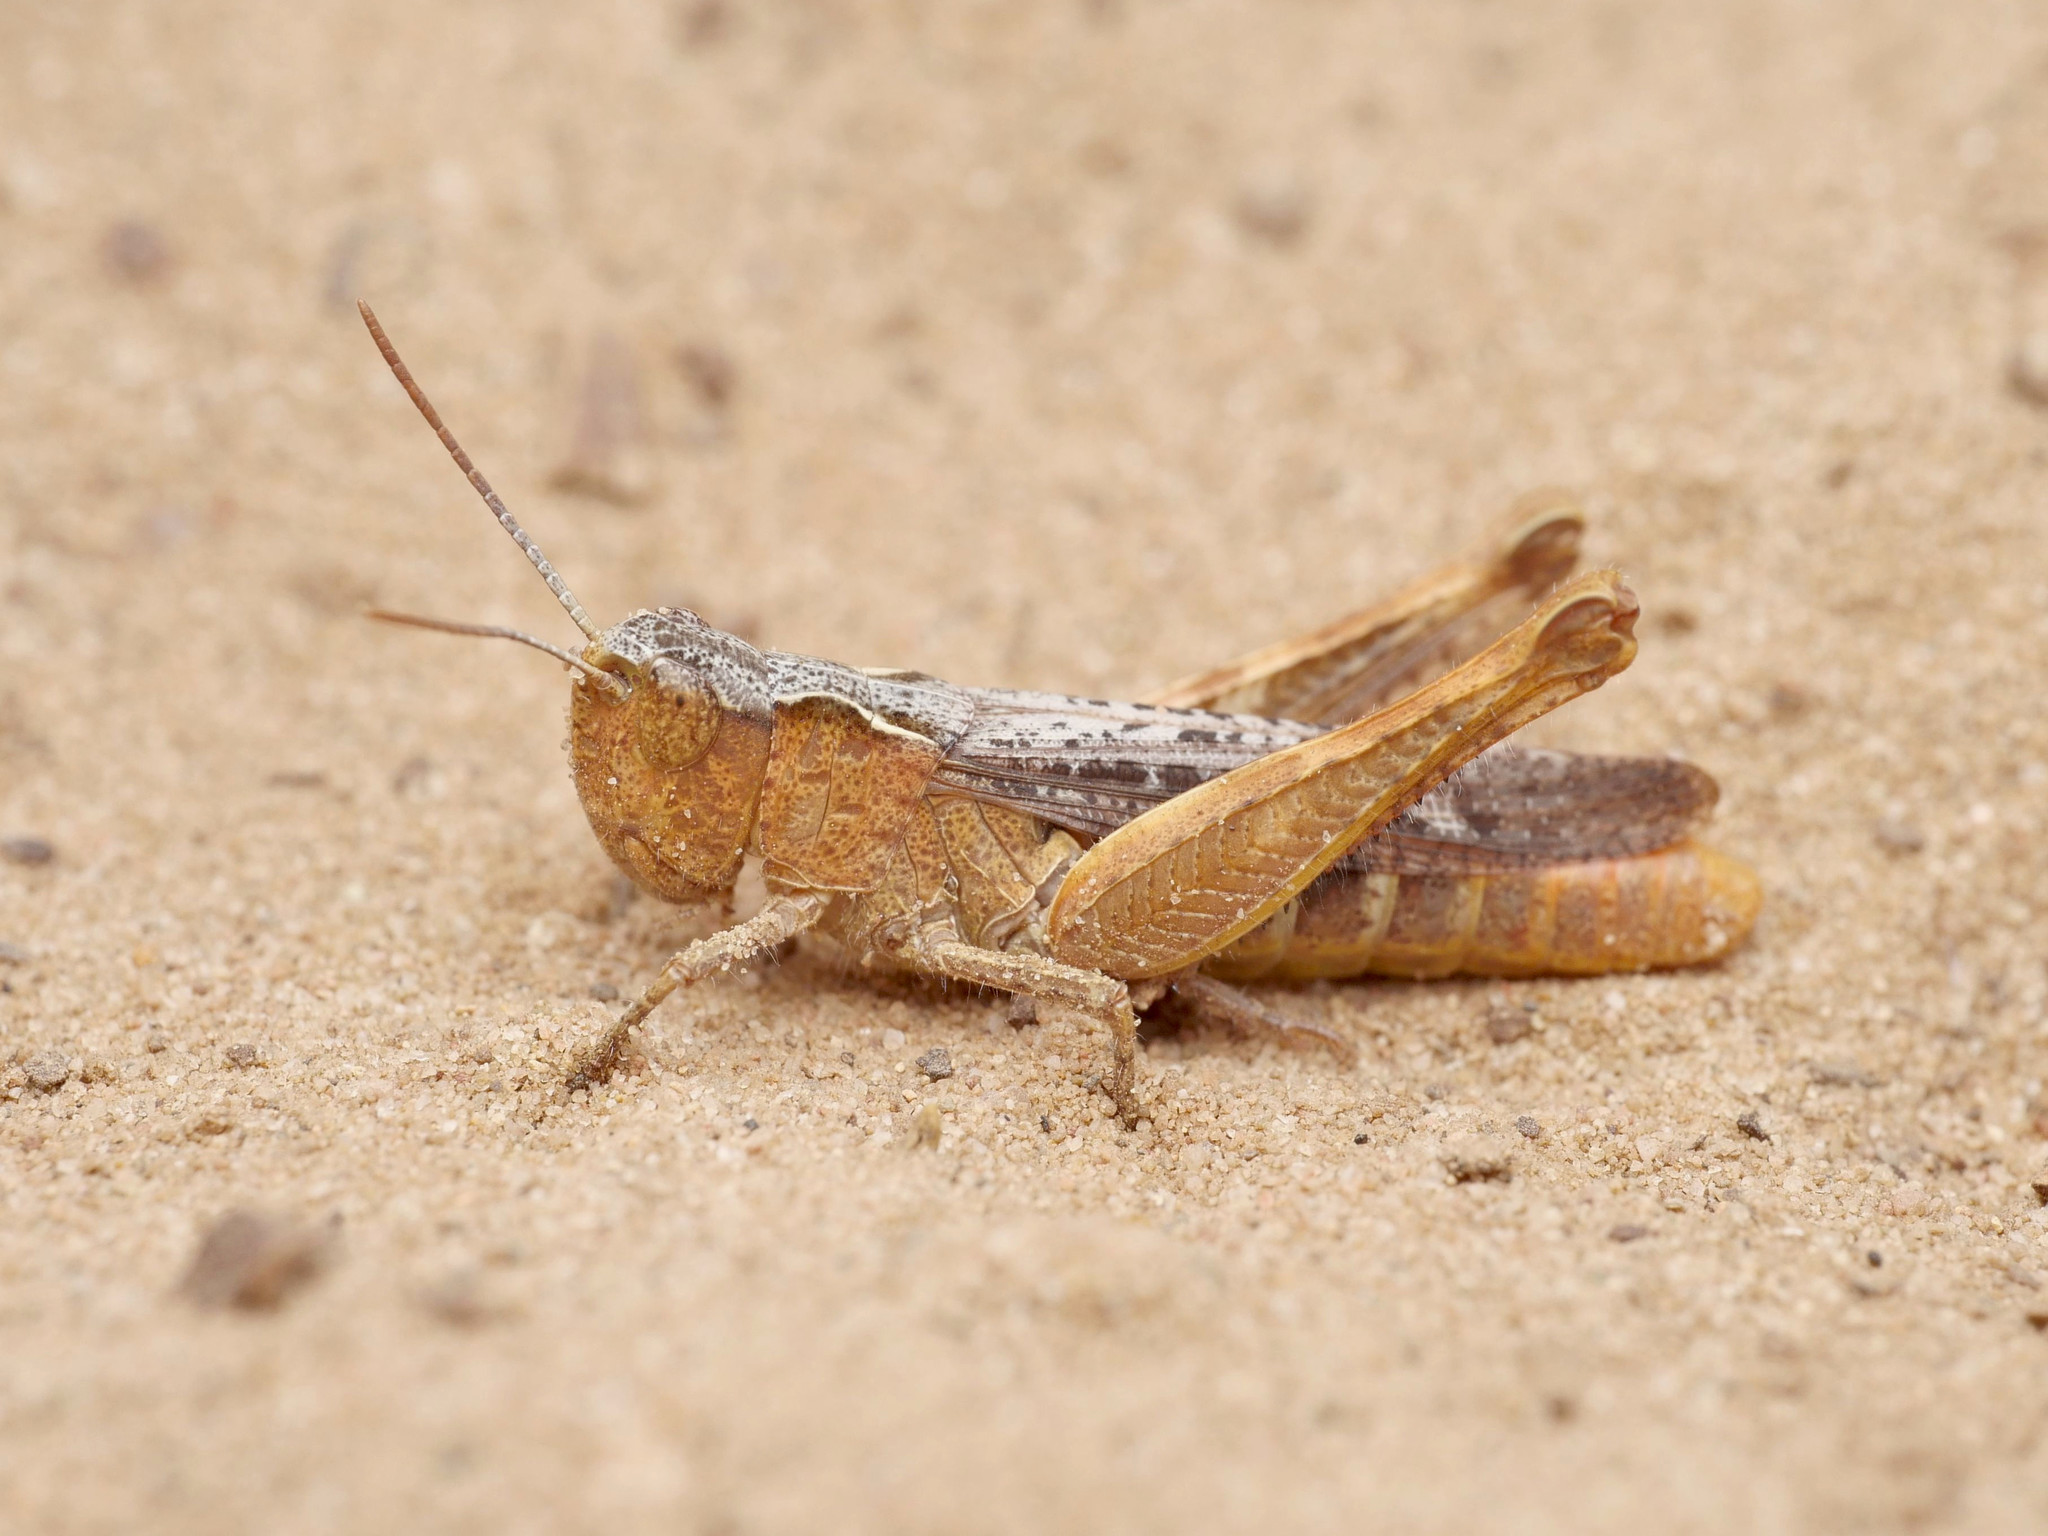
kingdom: Animalia
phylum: Arthropoda
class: Insecta
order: Orthoptera
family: Acrididae
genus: Chorthippus
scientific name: Chorthippus vagans
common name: Heath grasshopper
